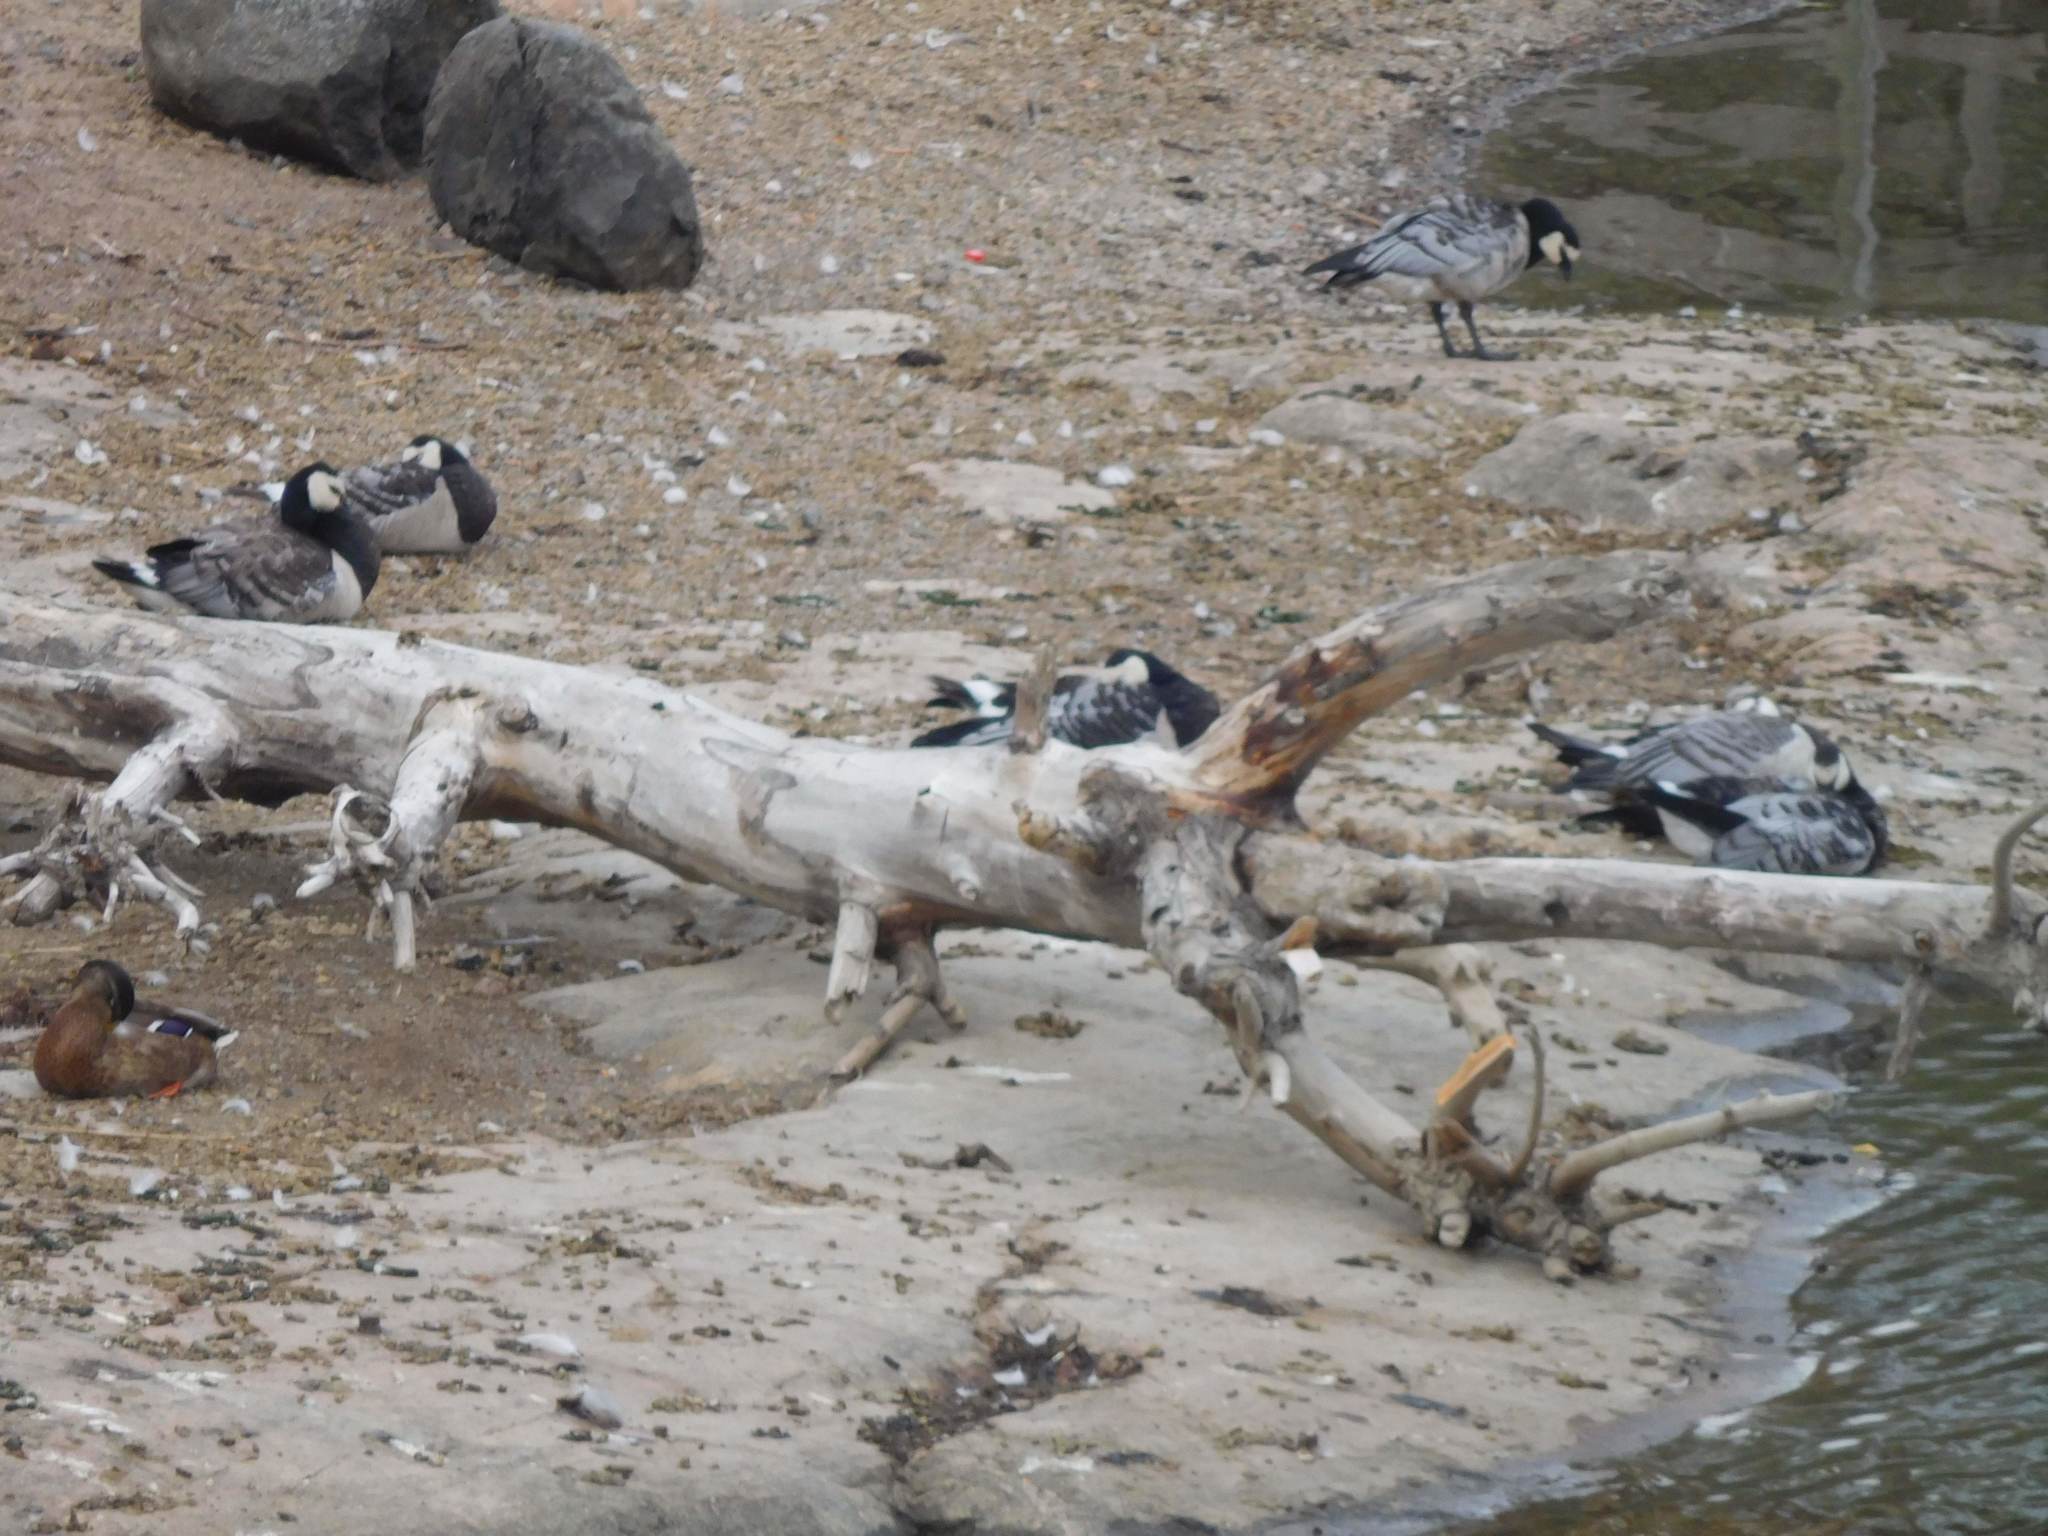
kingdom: Animalia
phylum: Chordata
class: Aves
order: Anseriformes
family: Anatidae
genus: Branta
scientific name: Branta leucopsis
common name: Barnacle goose
